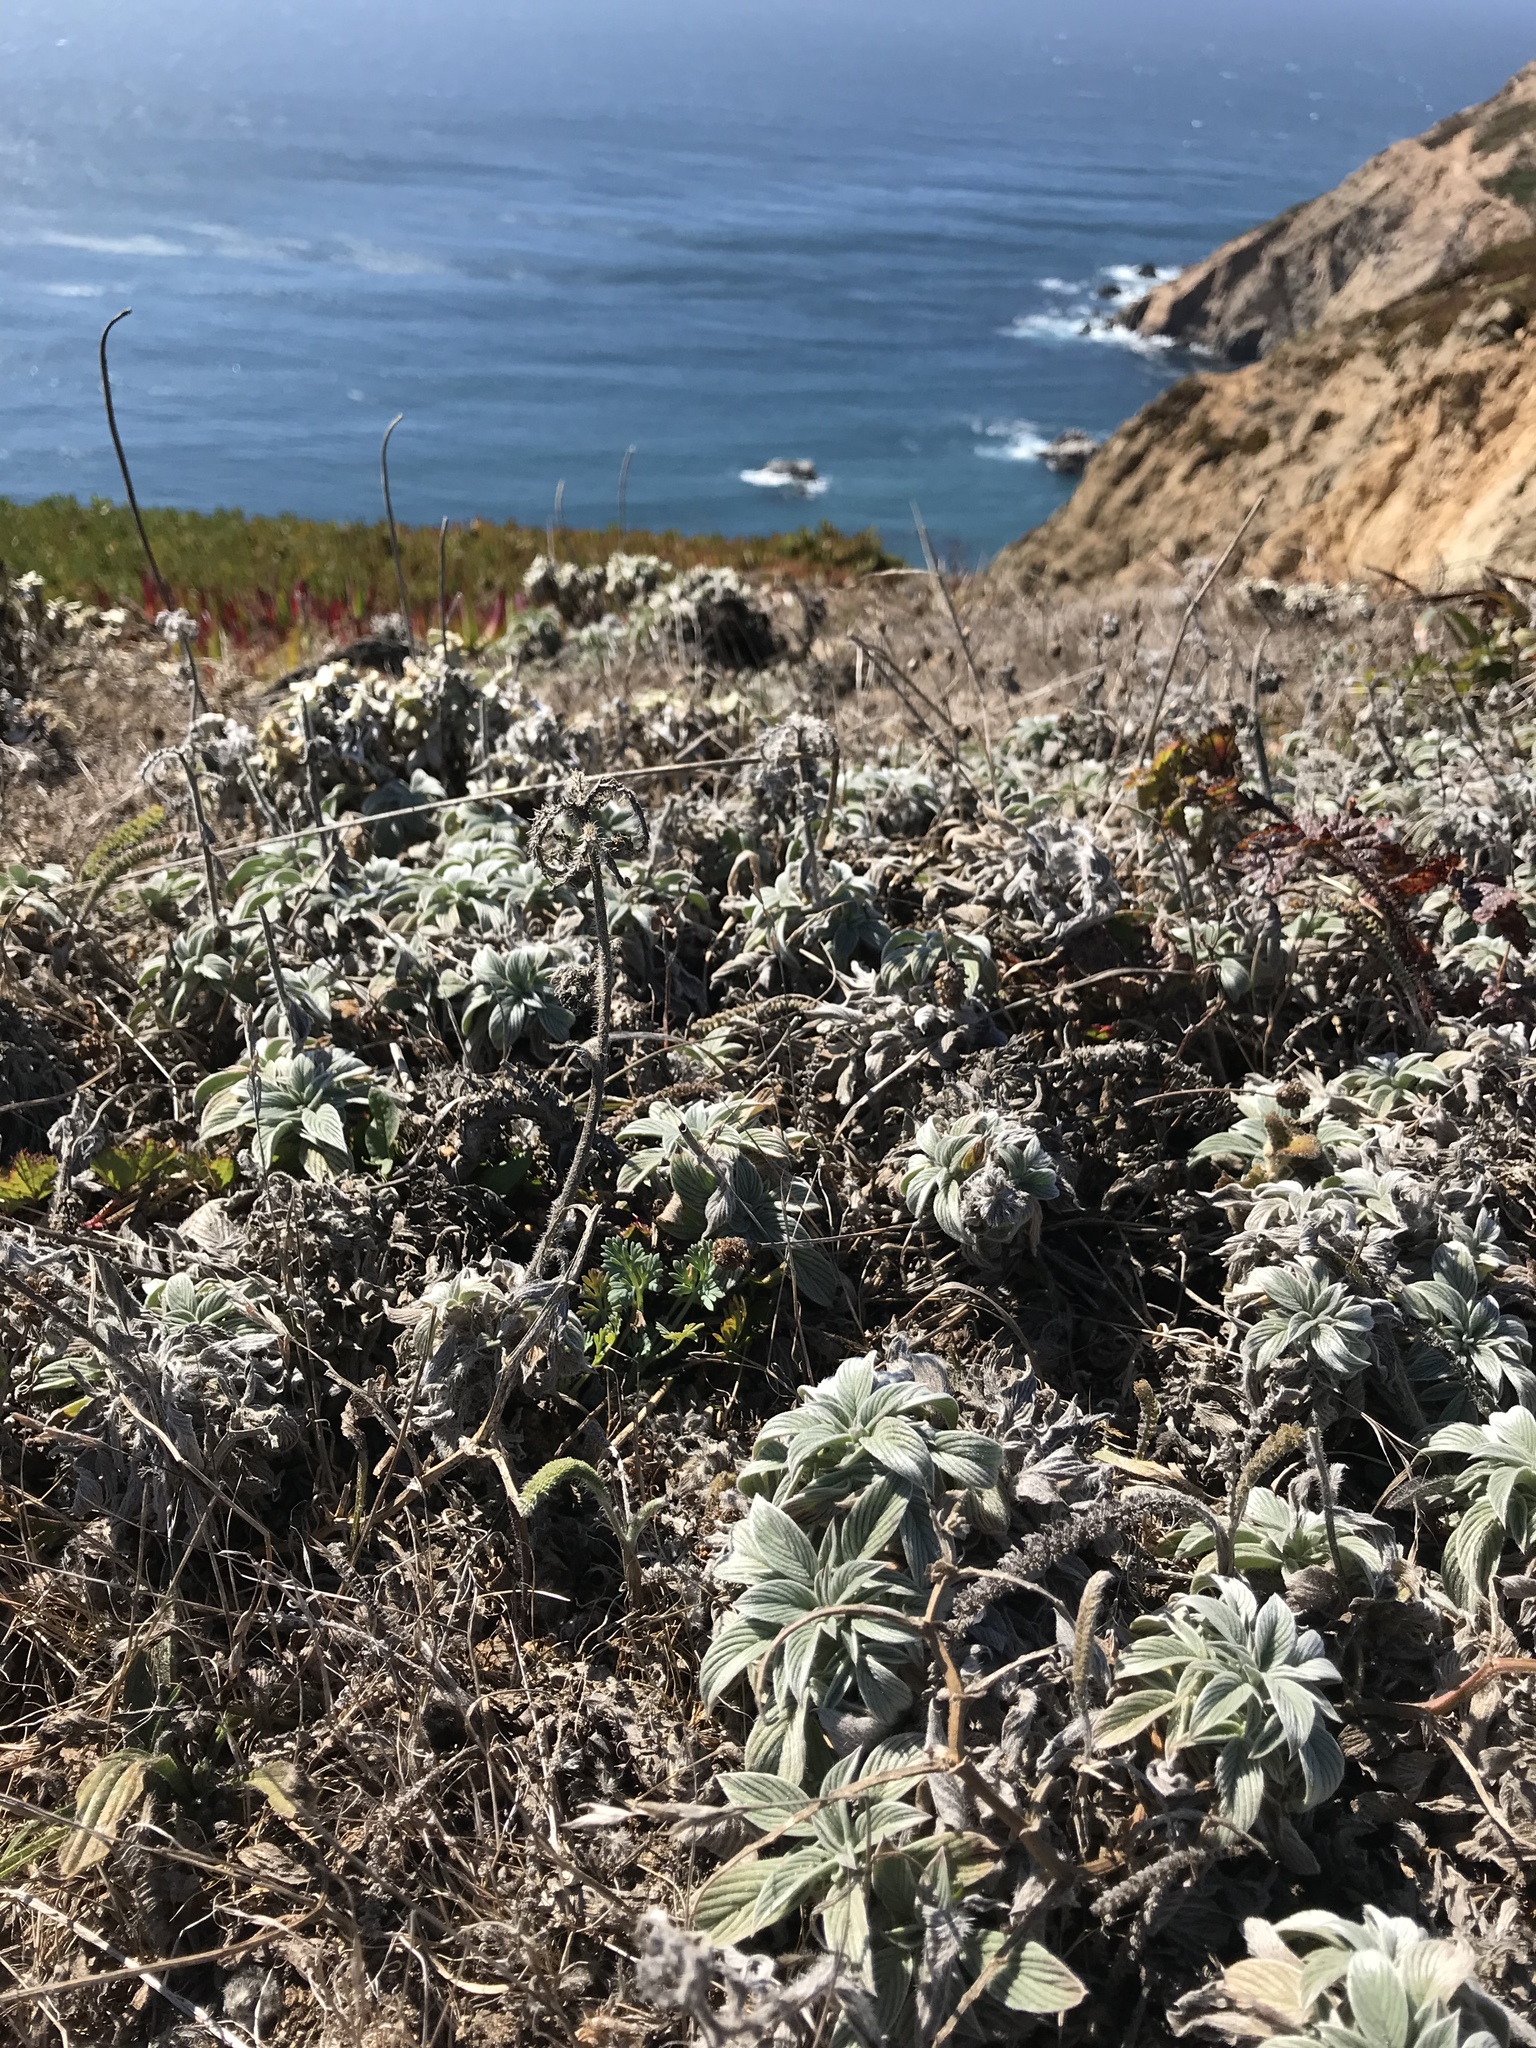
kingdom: Plantae
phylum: Tracheophyta
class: Magnoliopsida
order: Boraginales
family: Hydrophyllaceae
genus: Phacelia
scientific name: Phacelia californica
